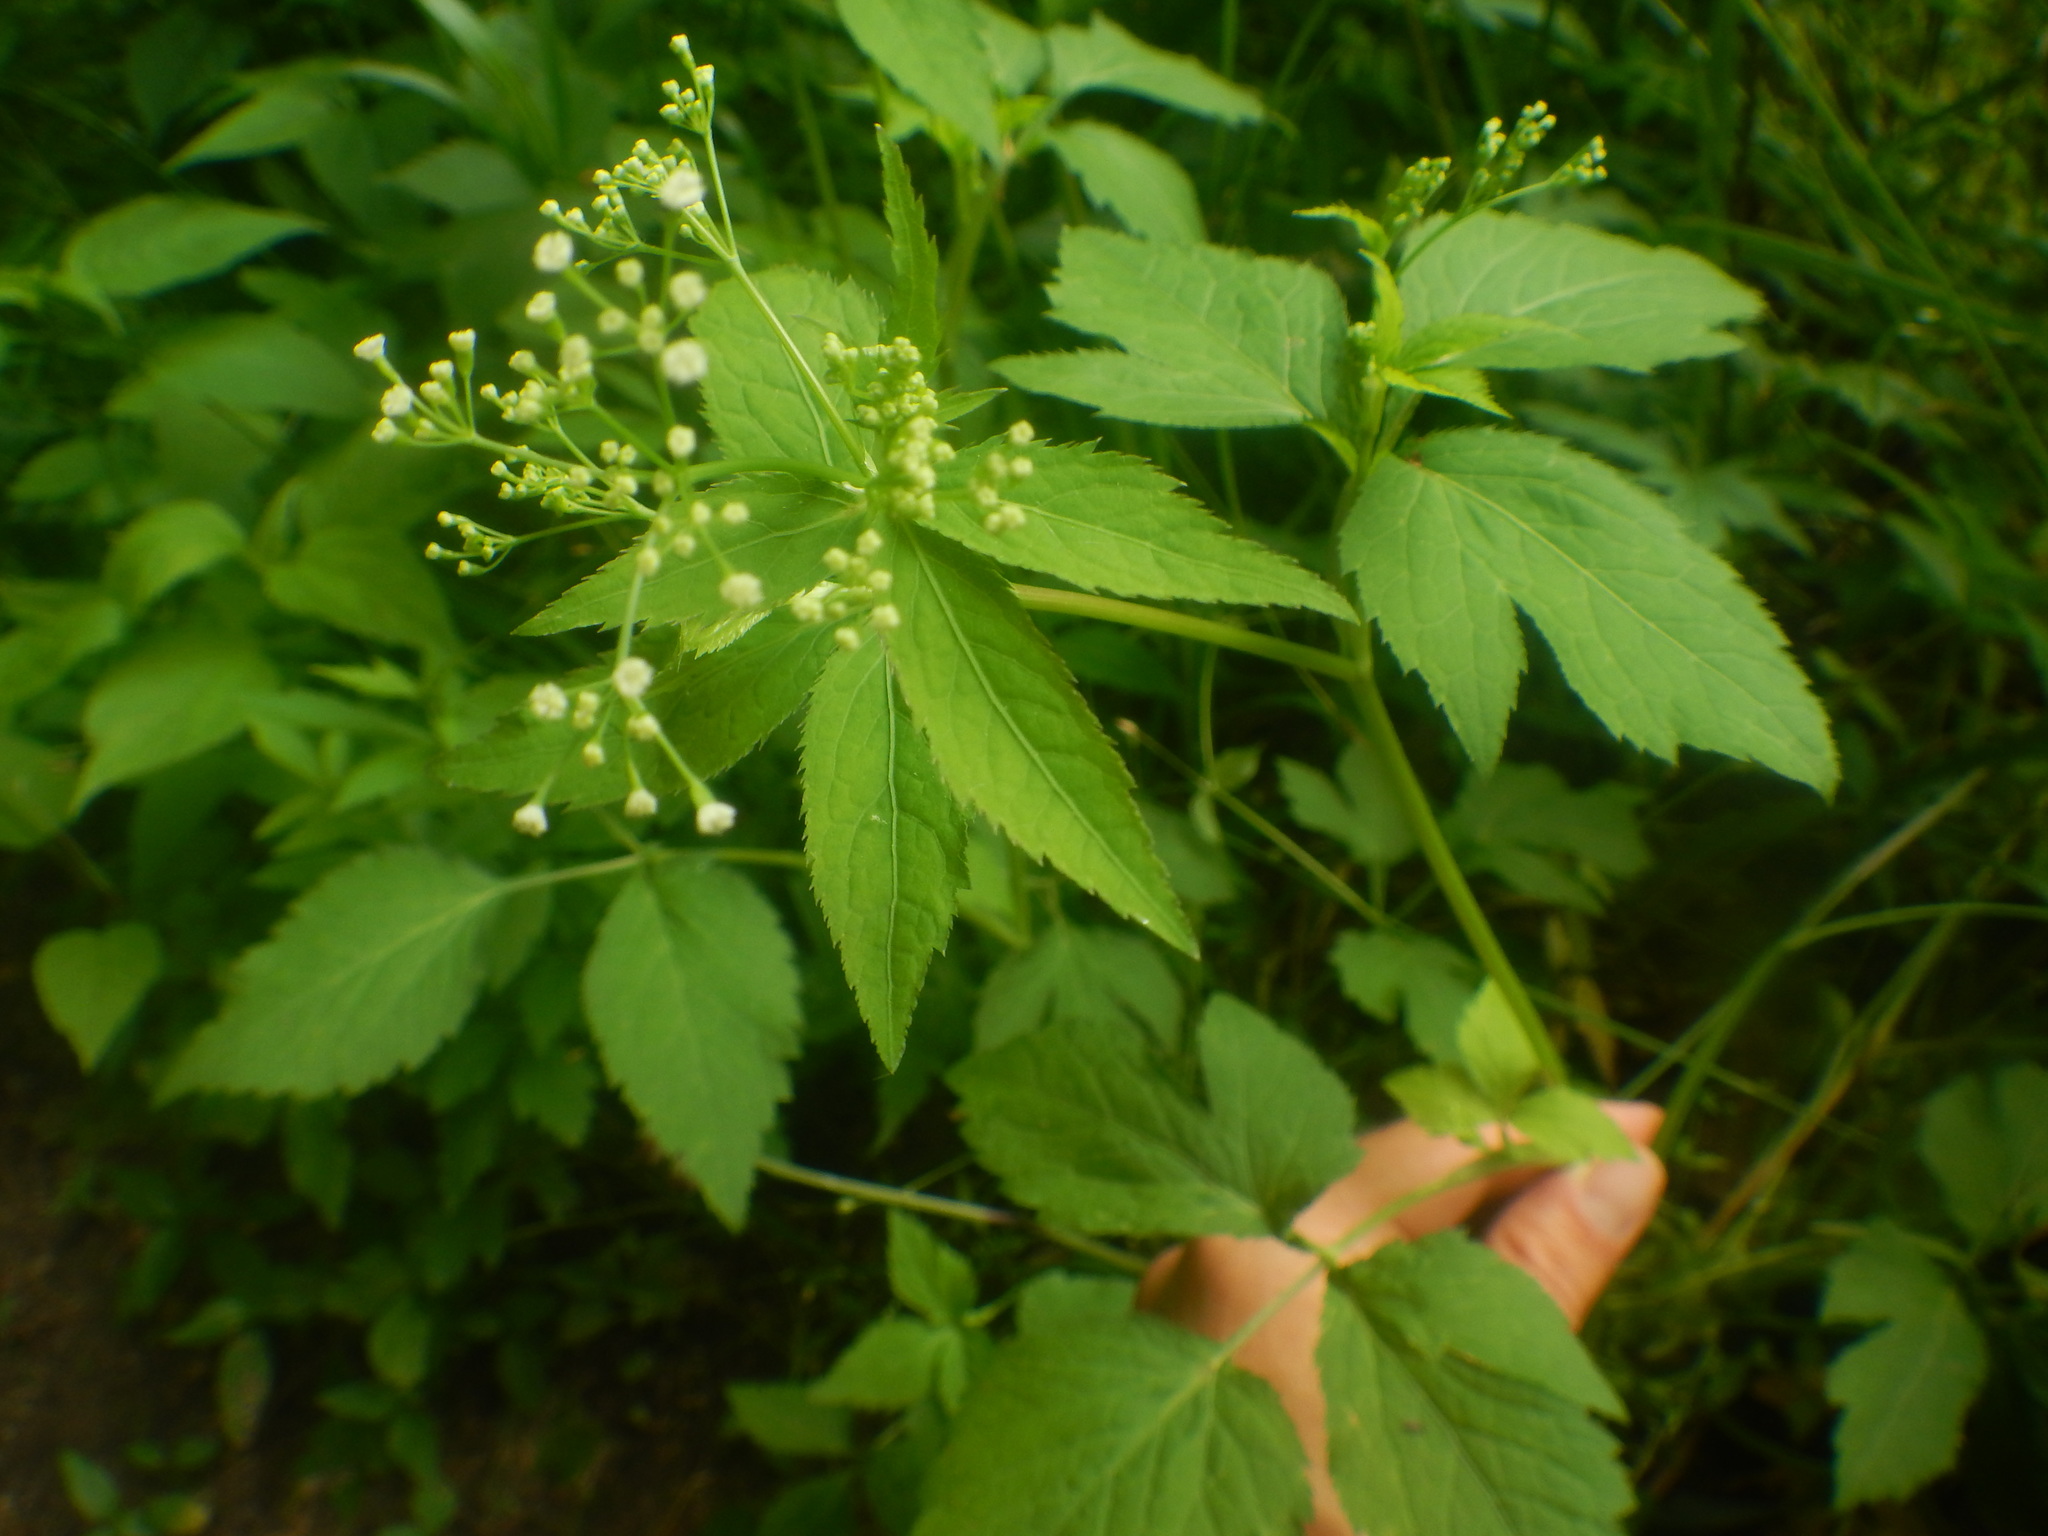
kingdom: Plantae
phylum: Tracheophyta
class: Magnoliopsida
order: Apiales
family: Apiaceae
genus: Cryptotaenia
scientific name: Cryptotaenia canadensis
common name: Honewort
